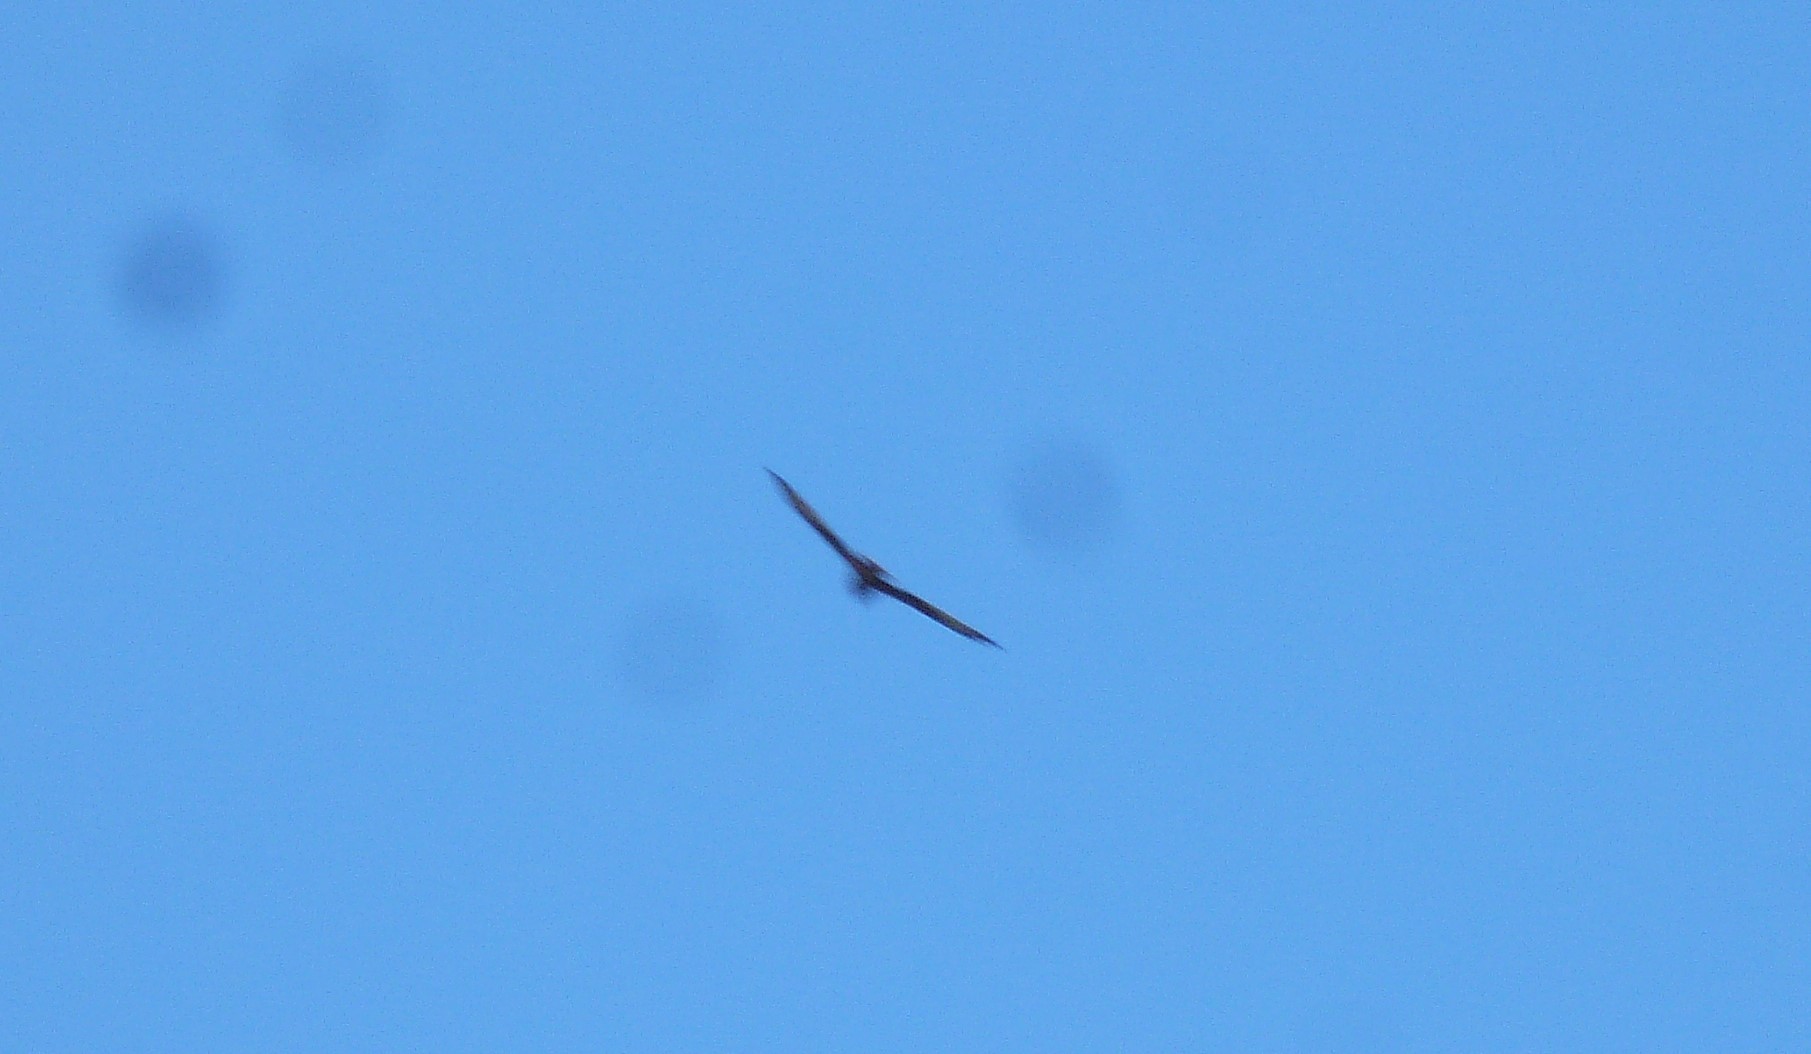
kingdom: Animalia
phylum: Chordata
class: Aves
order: Accipitriformes
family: Accipitridae
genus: Circus
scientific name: Circus approximans
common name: Swamp harrier
